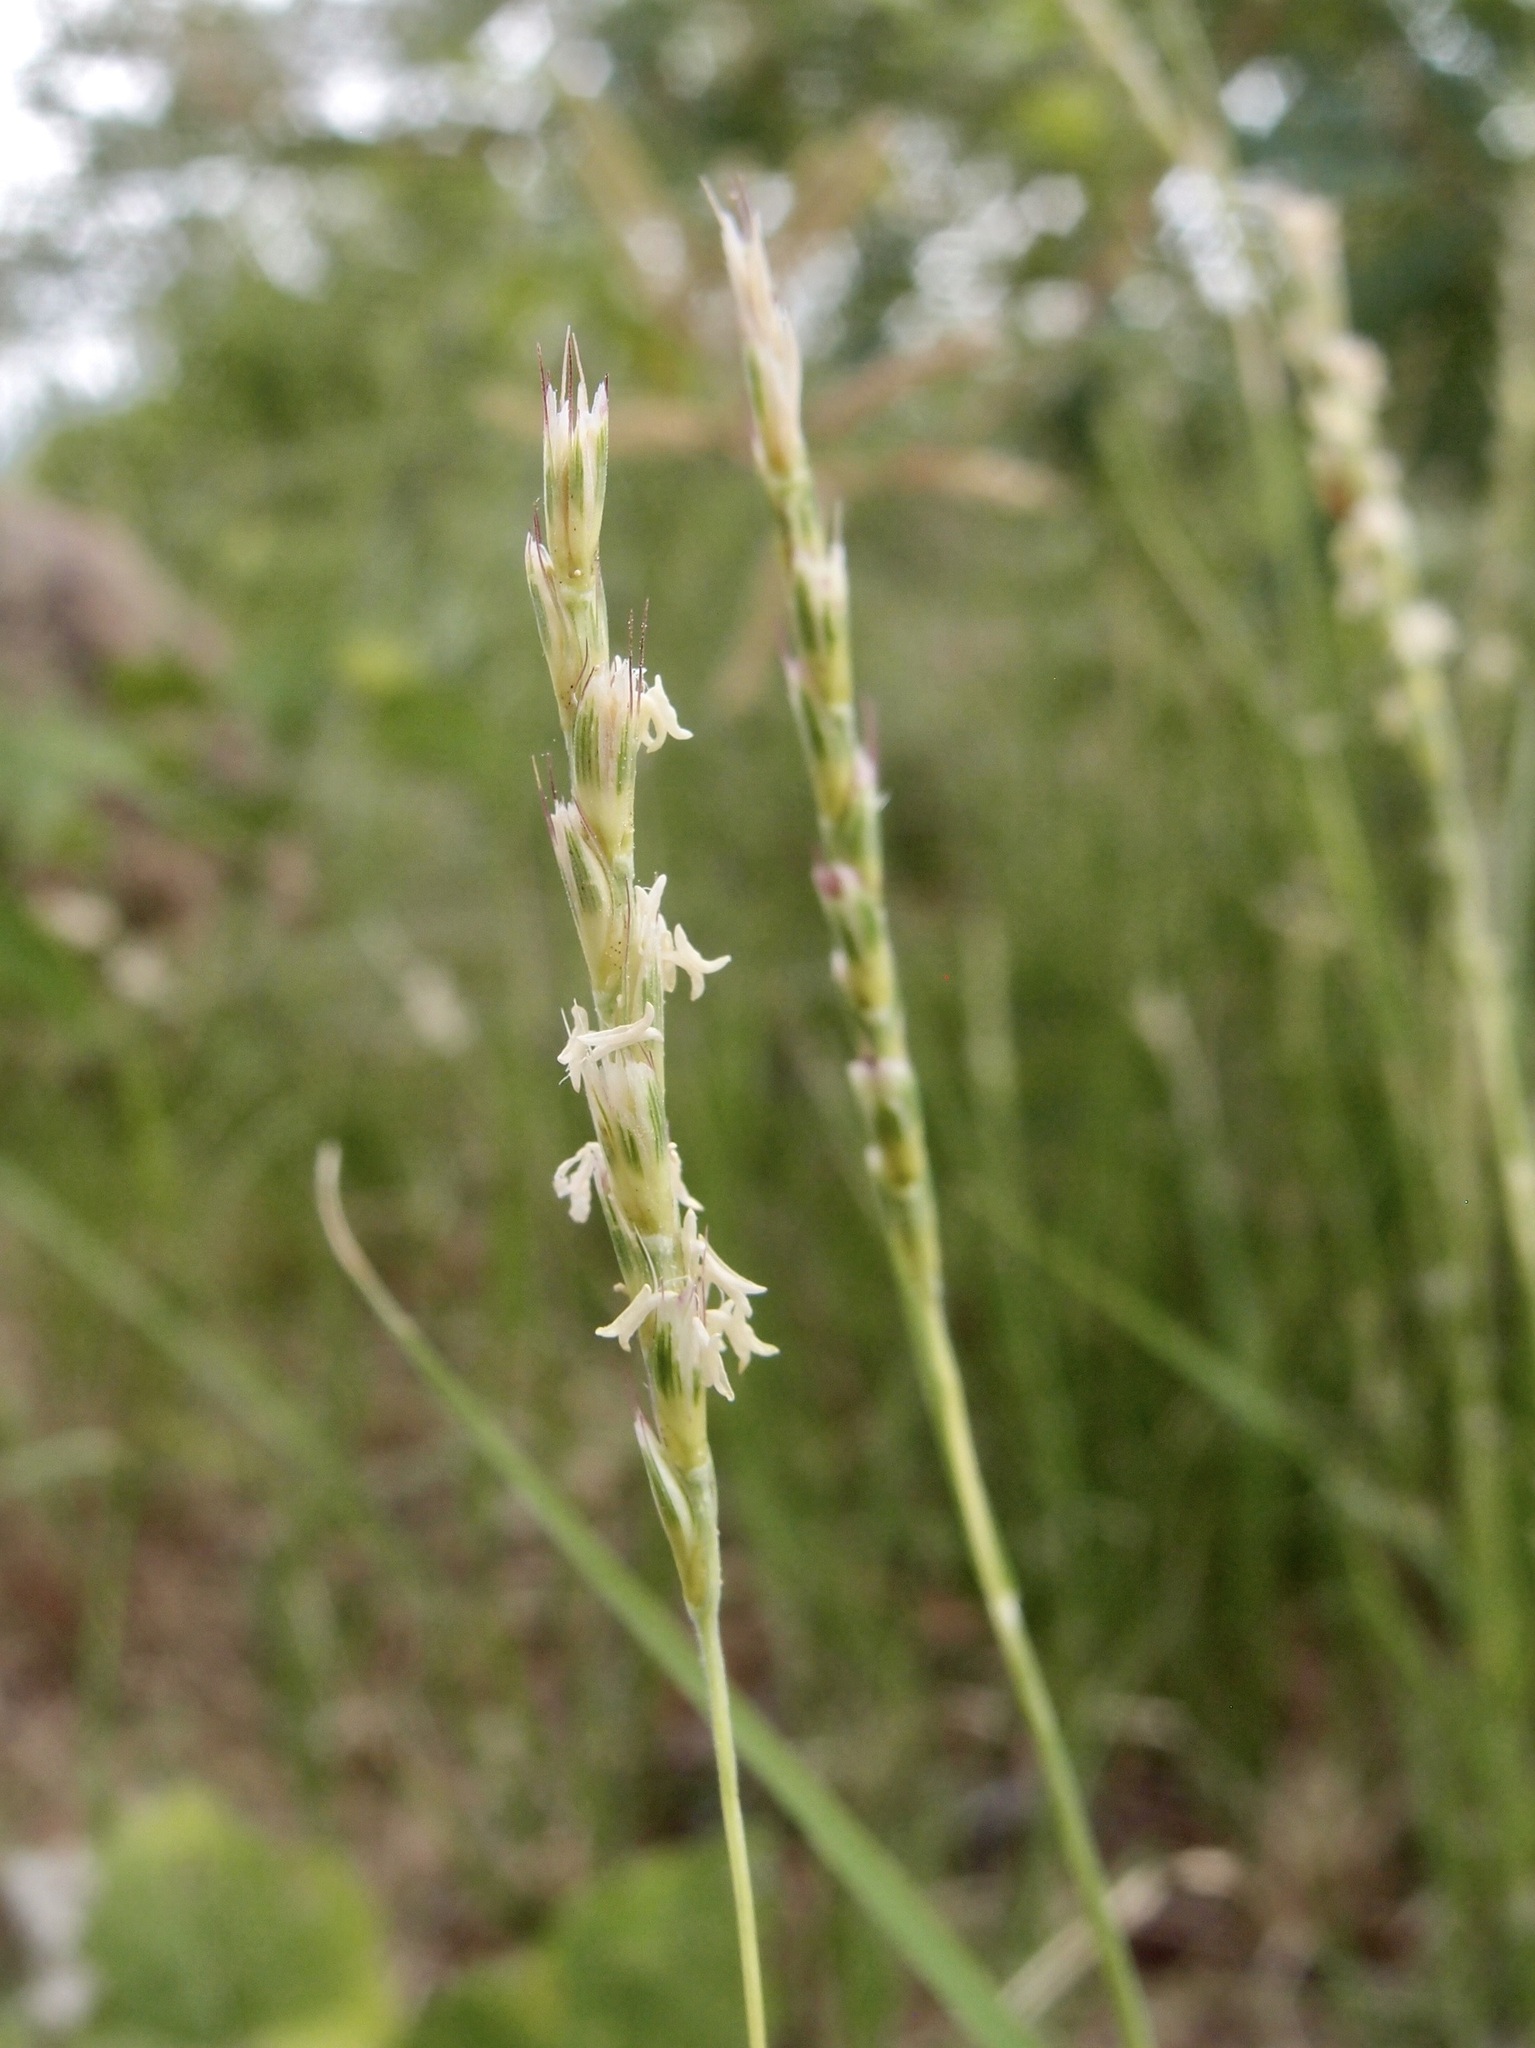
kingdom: Plantae
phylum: Tracheophyta
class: Liliopsida
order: Poales
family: Poaceae
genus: Hilaria
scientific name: Hilaria belangeri
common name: Curly-mesquite
